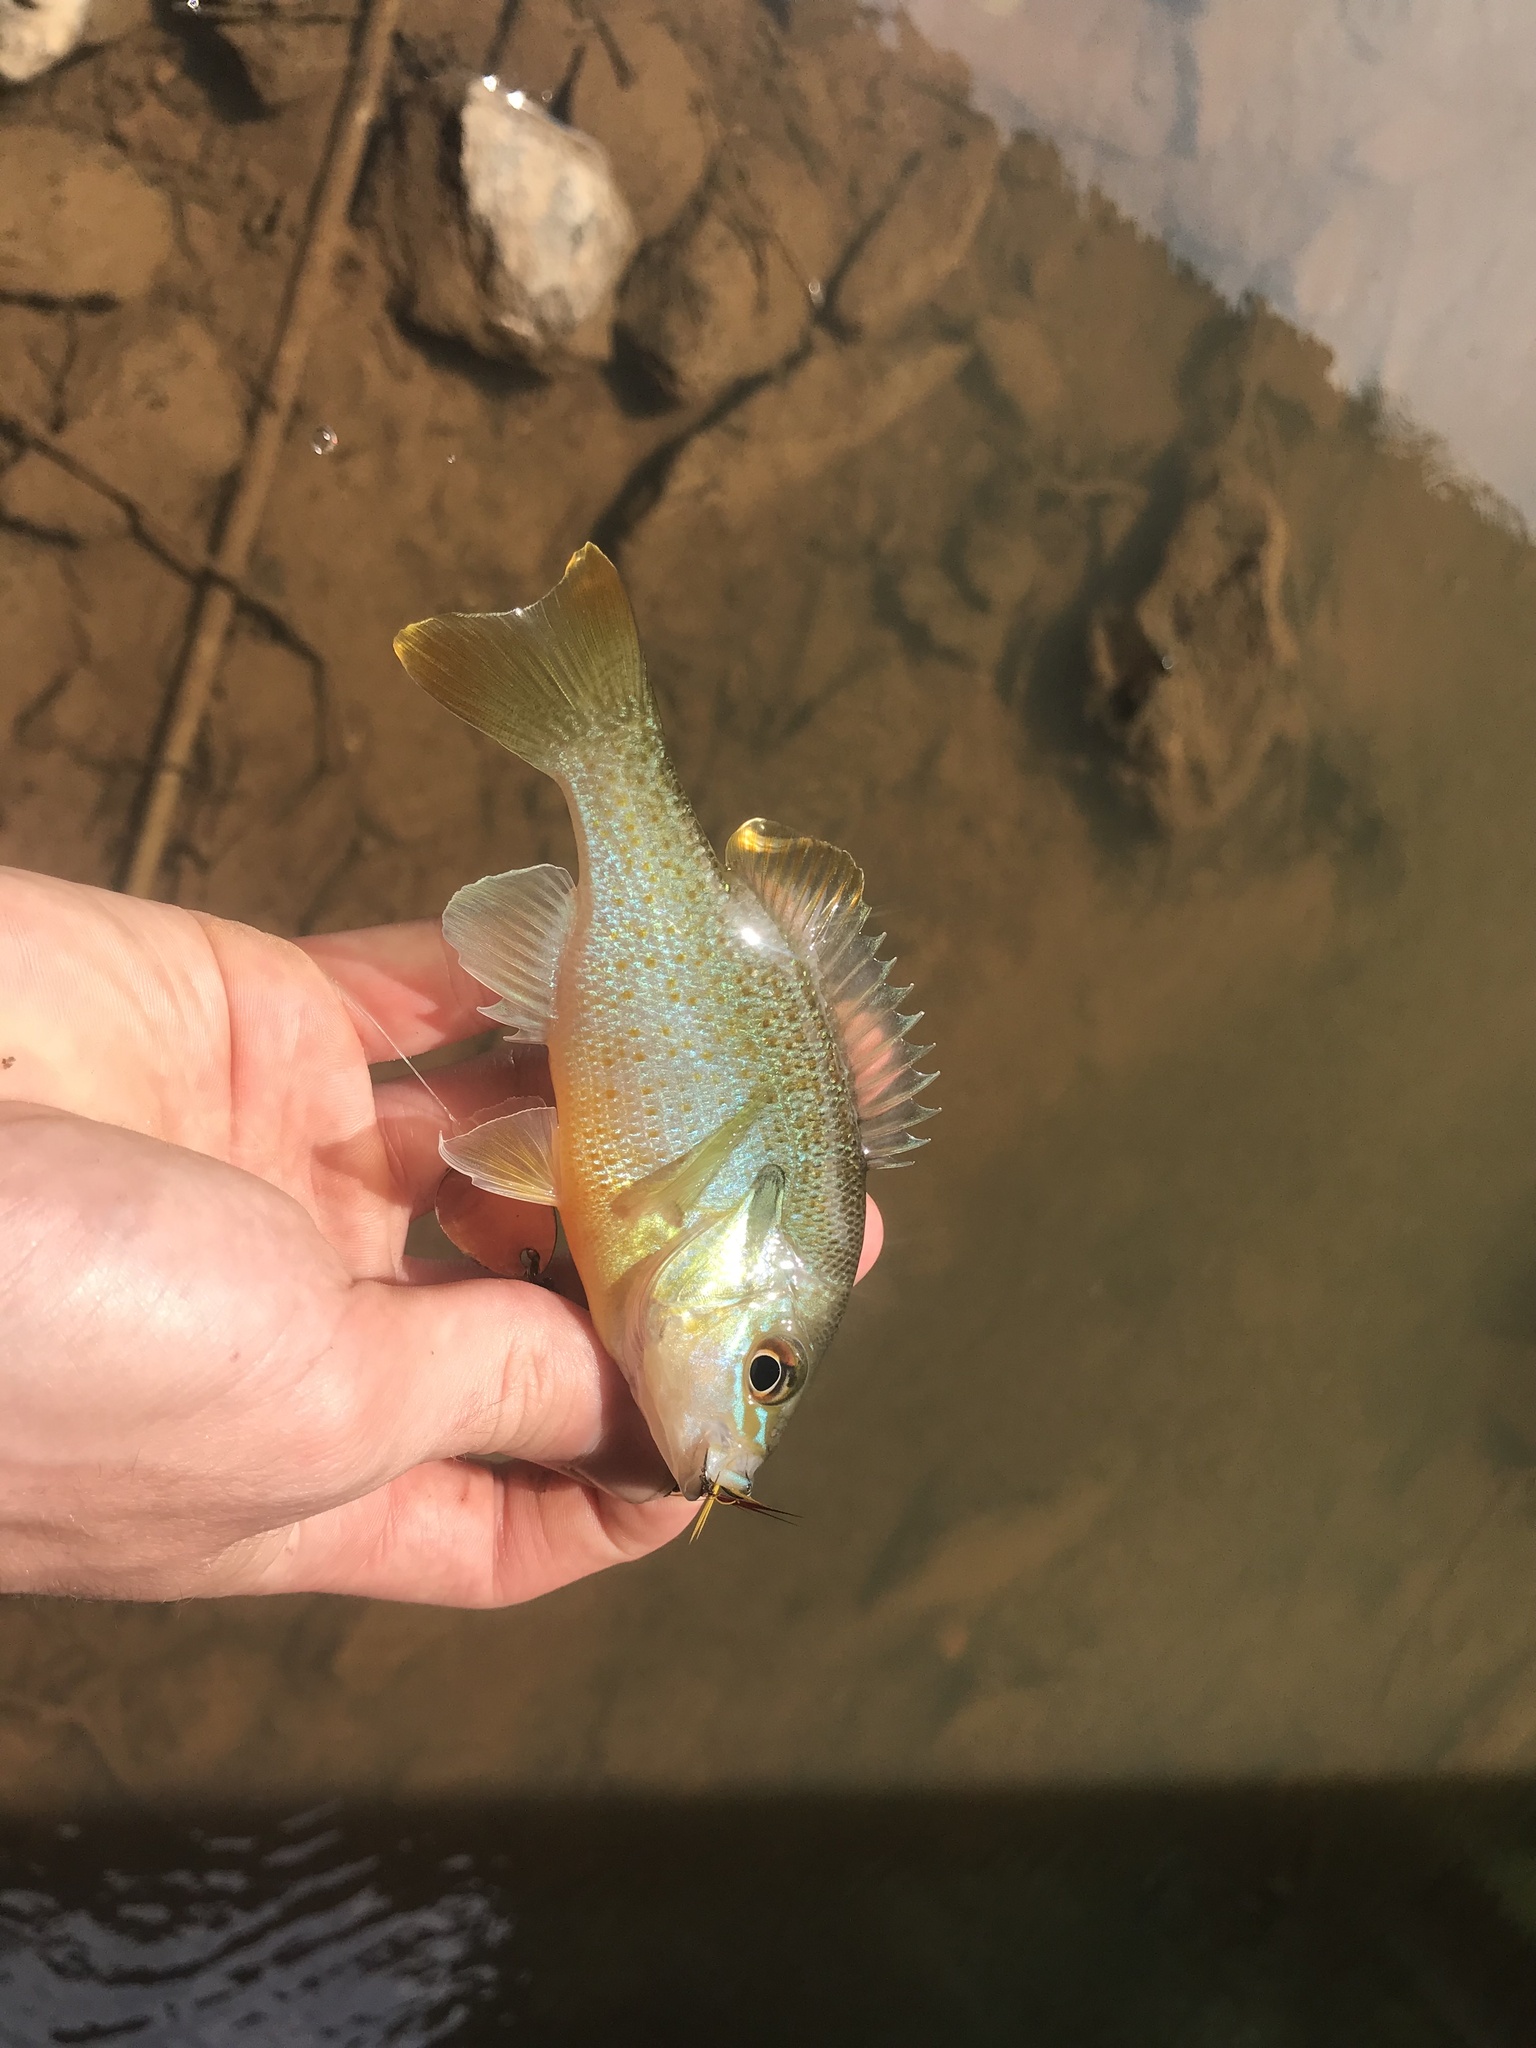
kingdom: Animalia
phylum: Chordata
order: Perciformes
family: Centrarchidae
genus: Lepomis
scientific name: Lepomis auritus
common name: Redbreast sunfish
